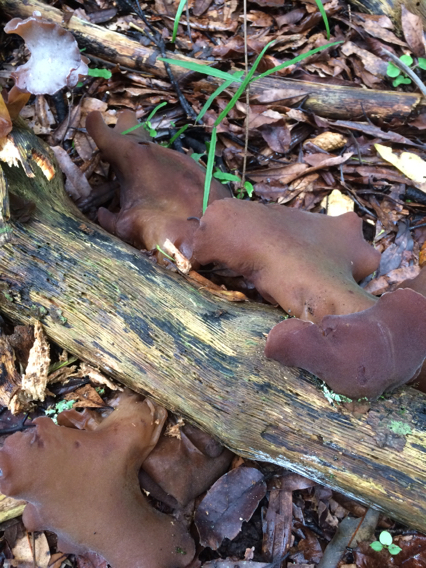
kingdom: Fungi
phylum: Basidiomycota
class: Agaricomycetes
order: Auriculariales
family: Auriculariaceae
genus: Auricularia
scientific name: Auricularia cornea
